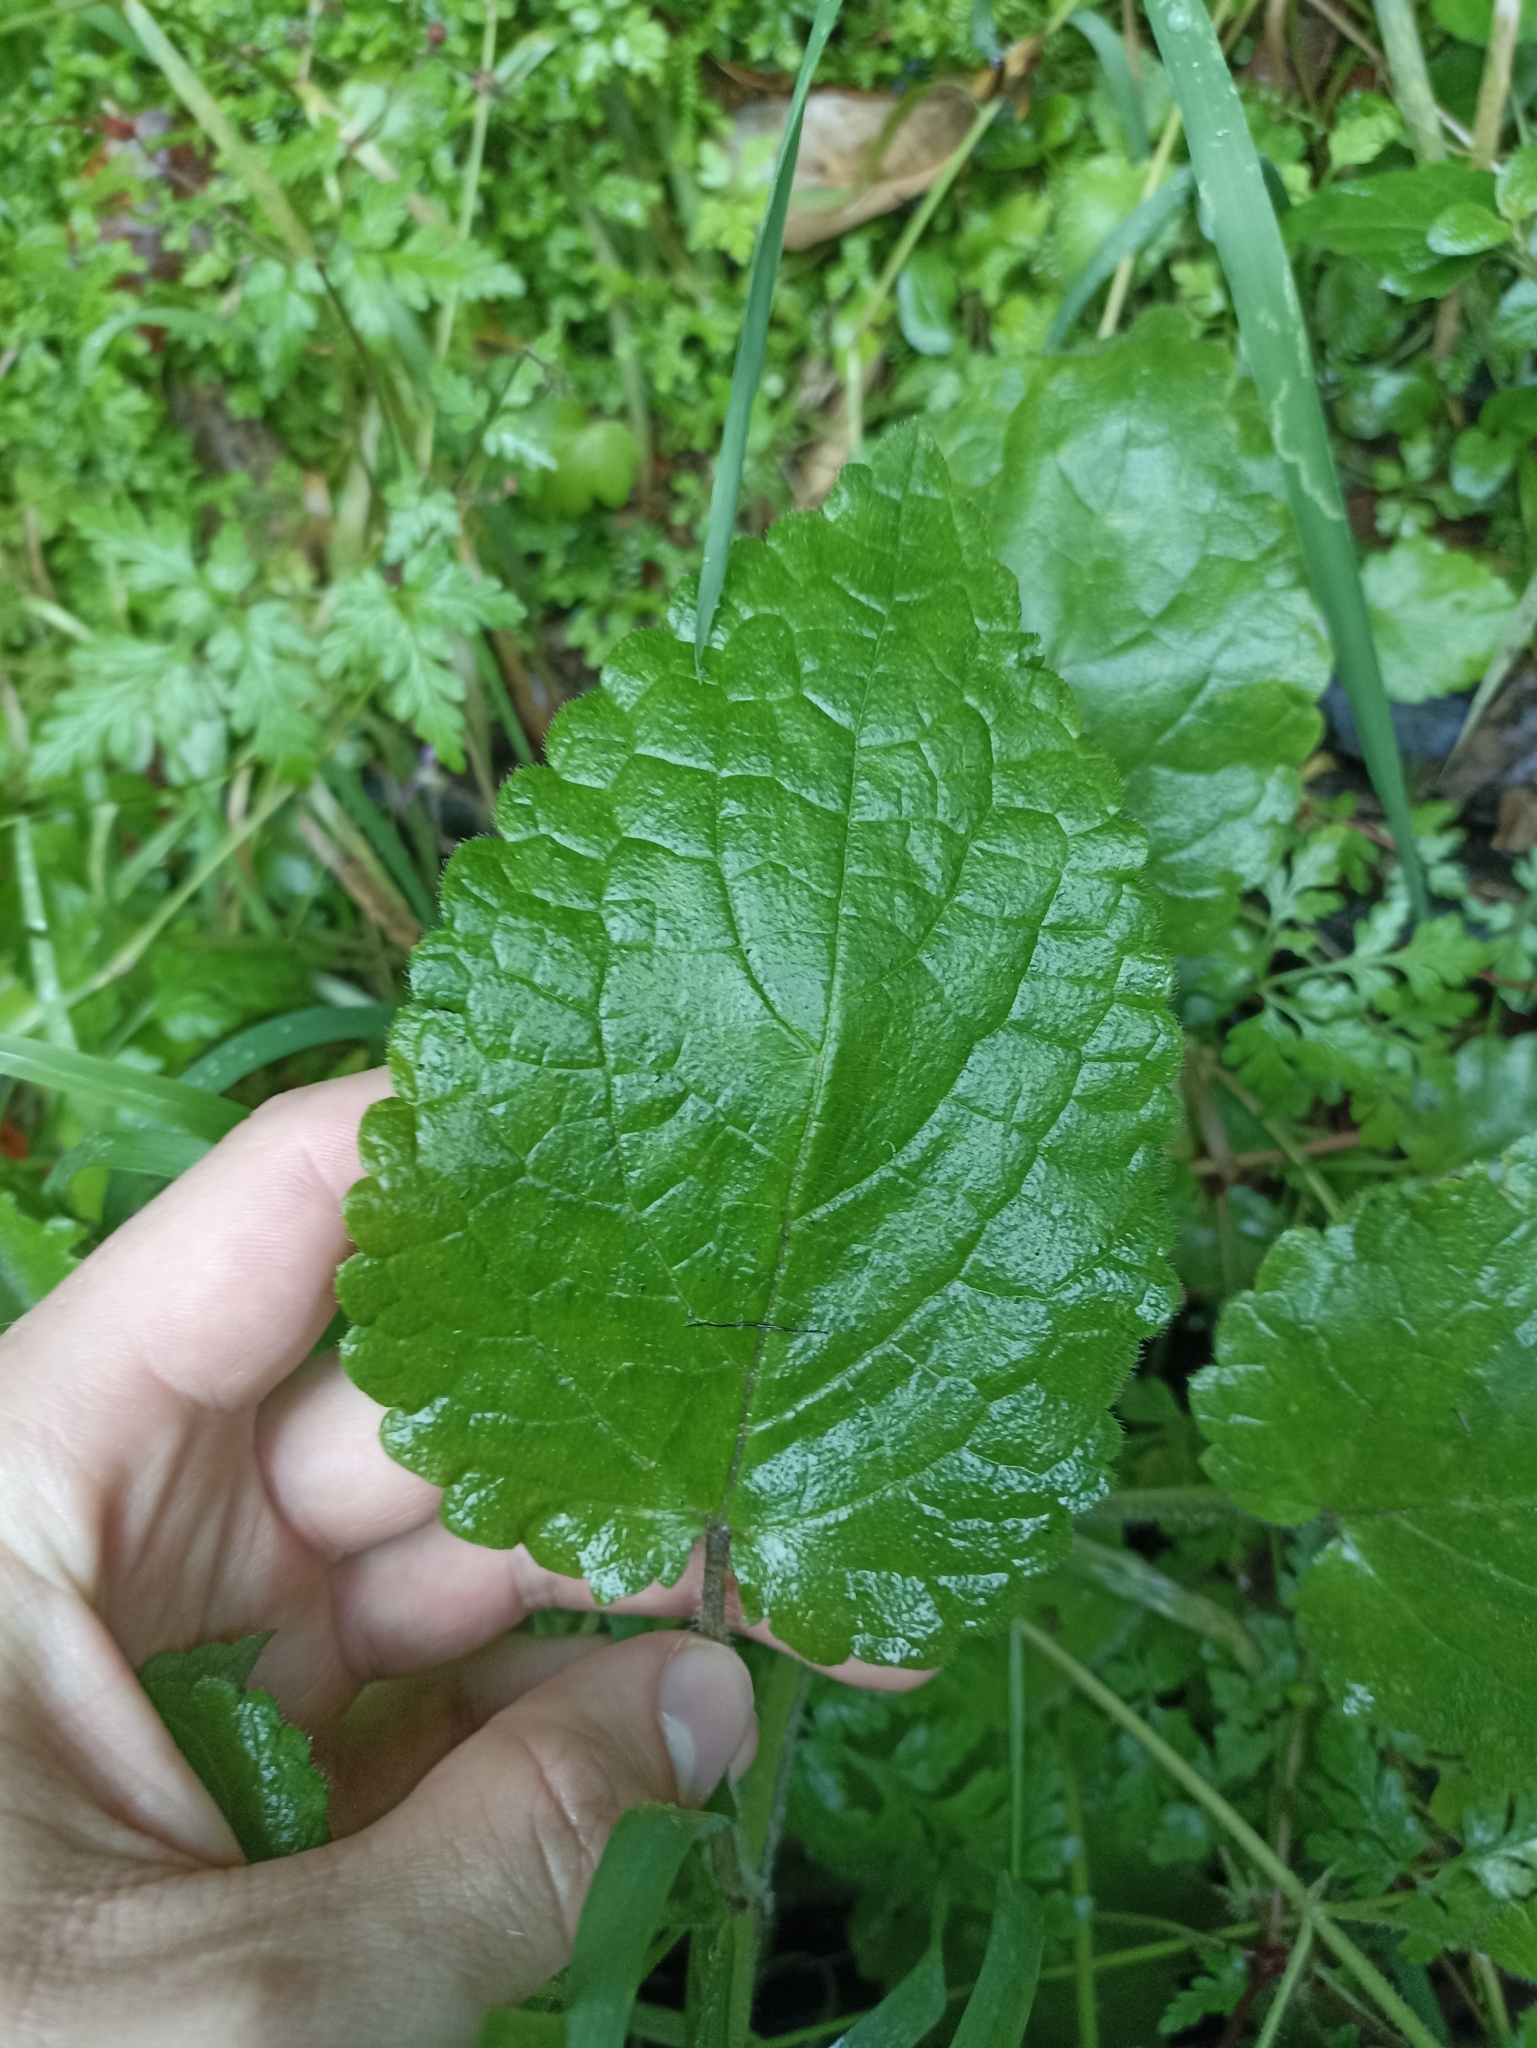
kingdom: Plantae
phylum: Tracheophyta
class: Magnoliopsida
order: Lamiales
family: Lamiaceae
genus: Stachys
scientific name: Stachys sylvatica
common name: Hedge woundwort
